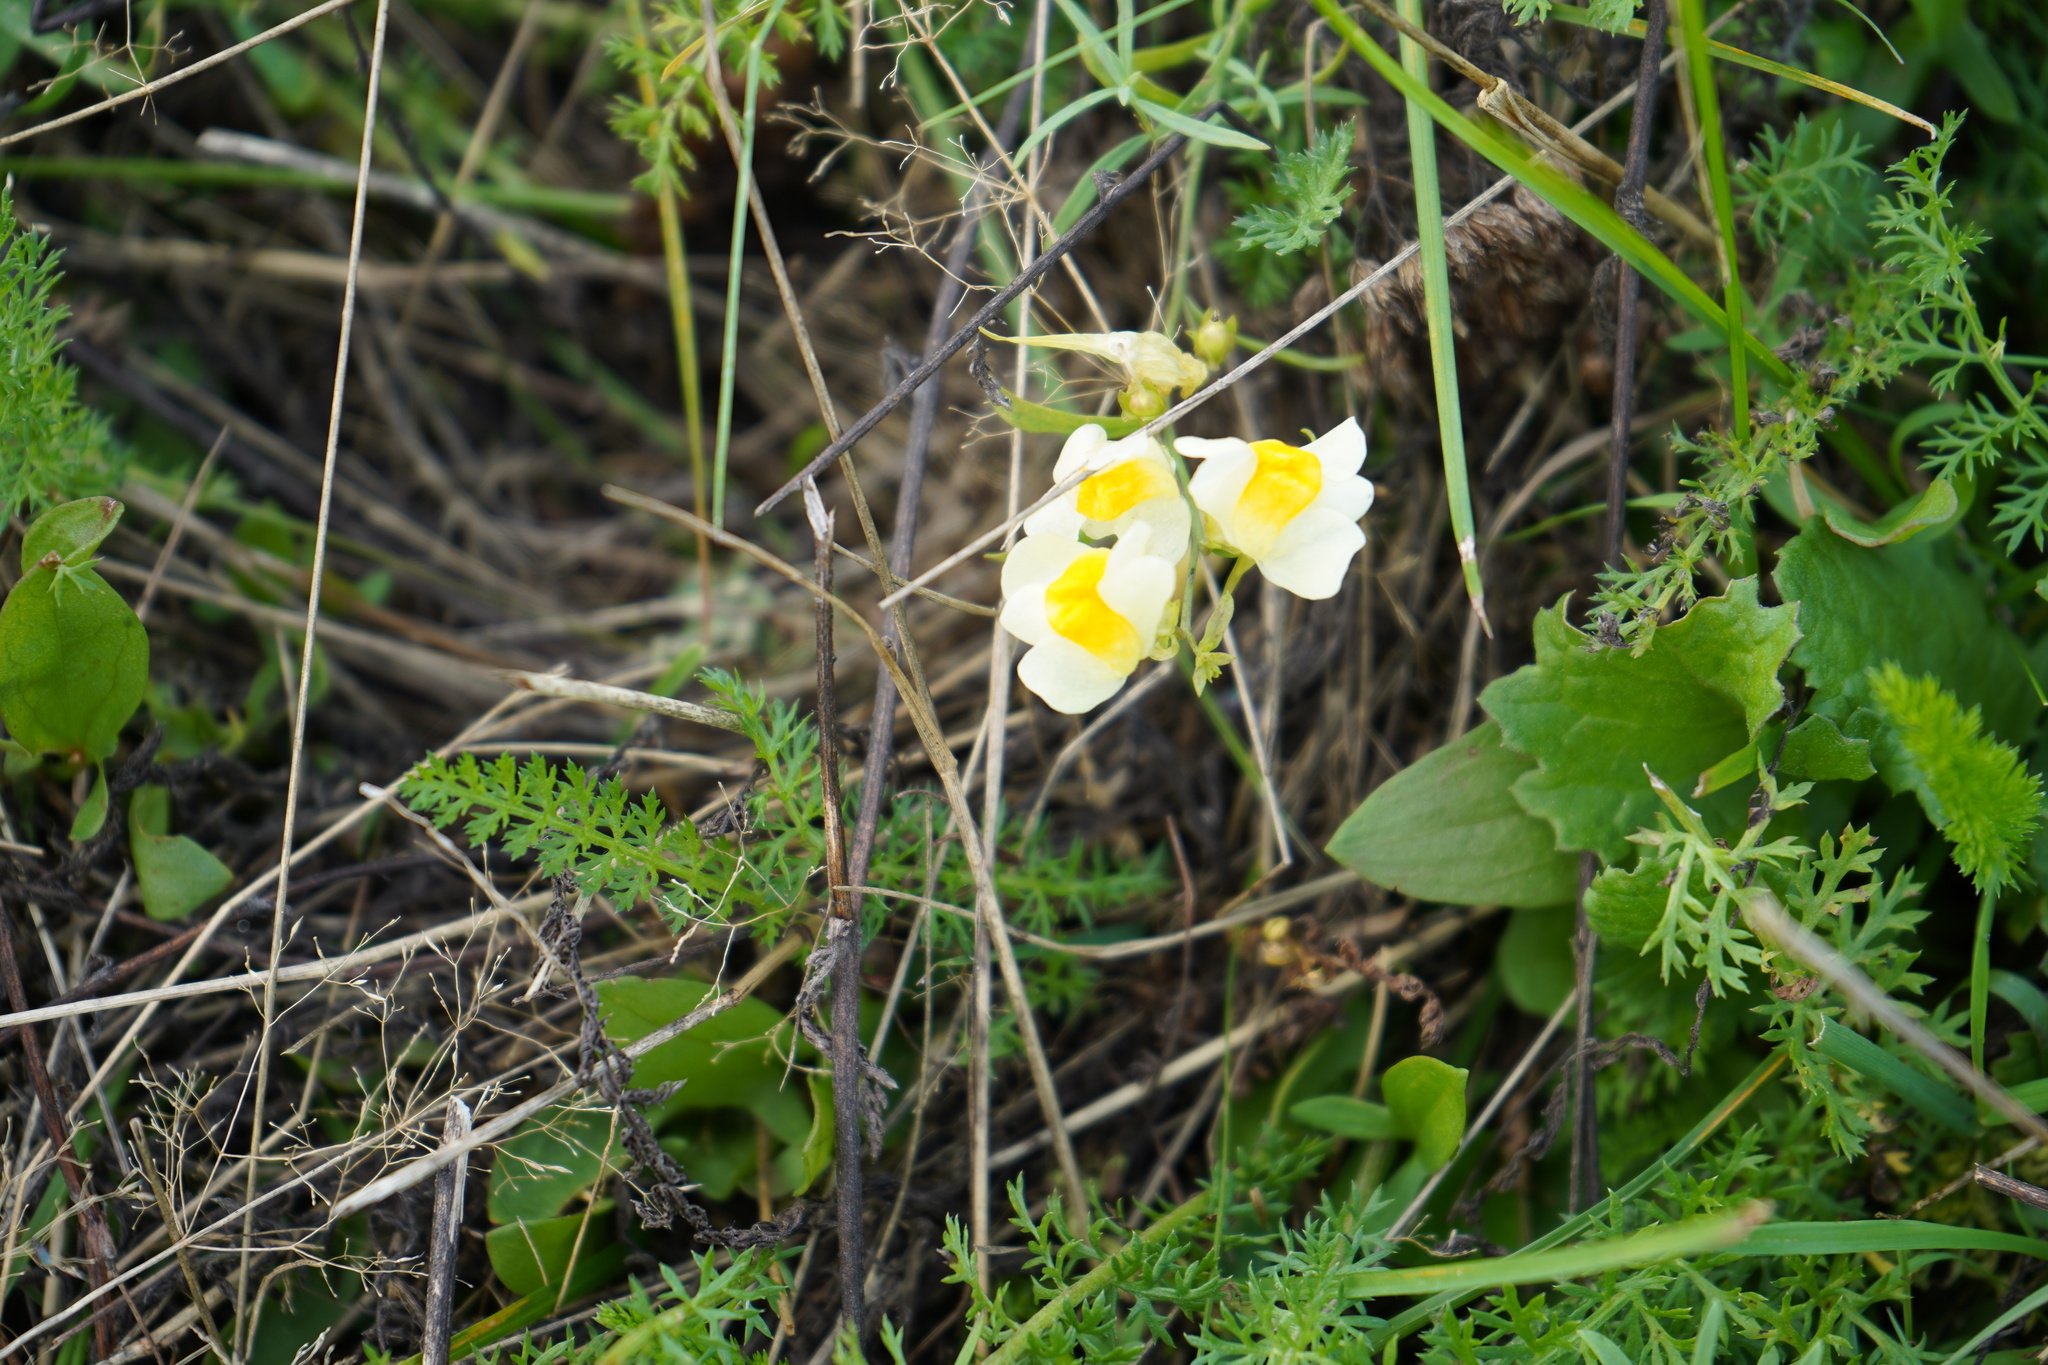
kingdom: Plantae
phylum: Tracheophyta
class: Magnoliopsida
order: Lamiales
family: Plantaginaceae
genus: Linaria
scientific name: Linaria vulgaris
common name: Butter and eggs
